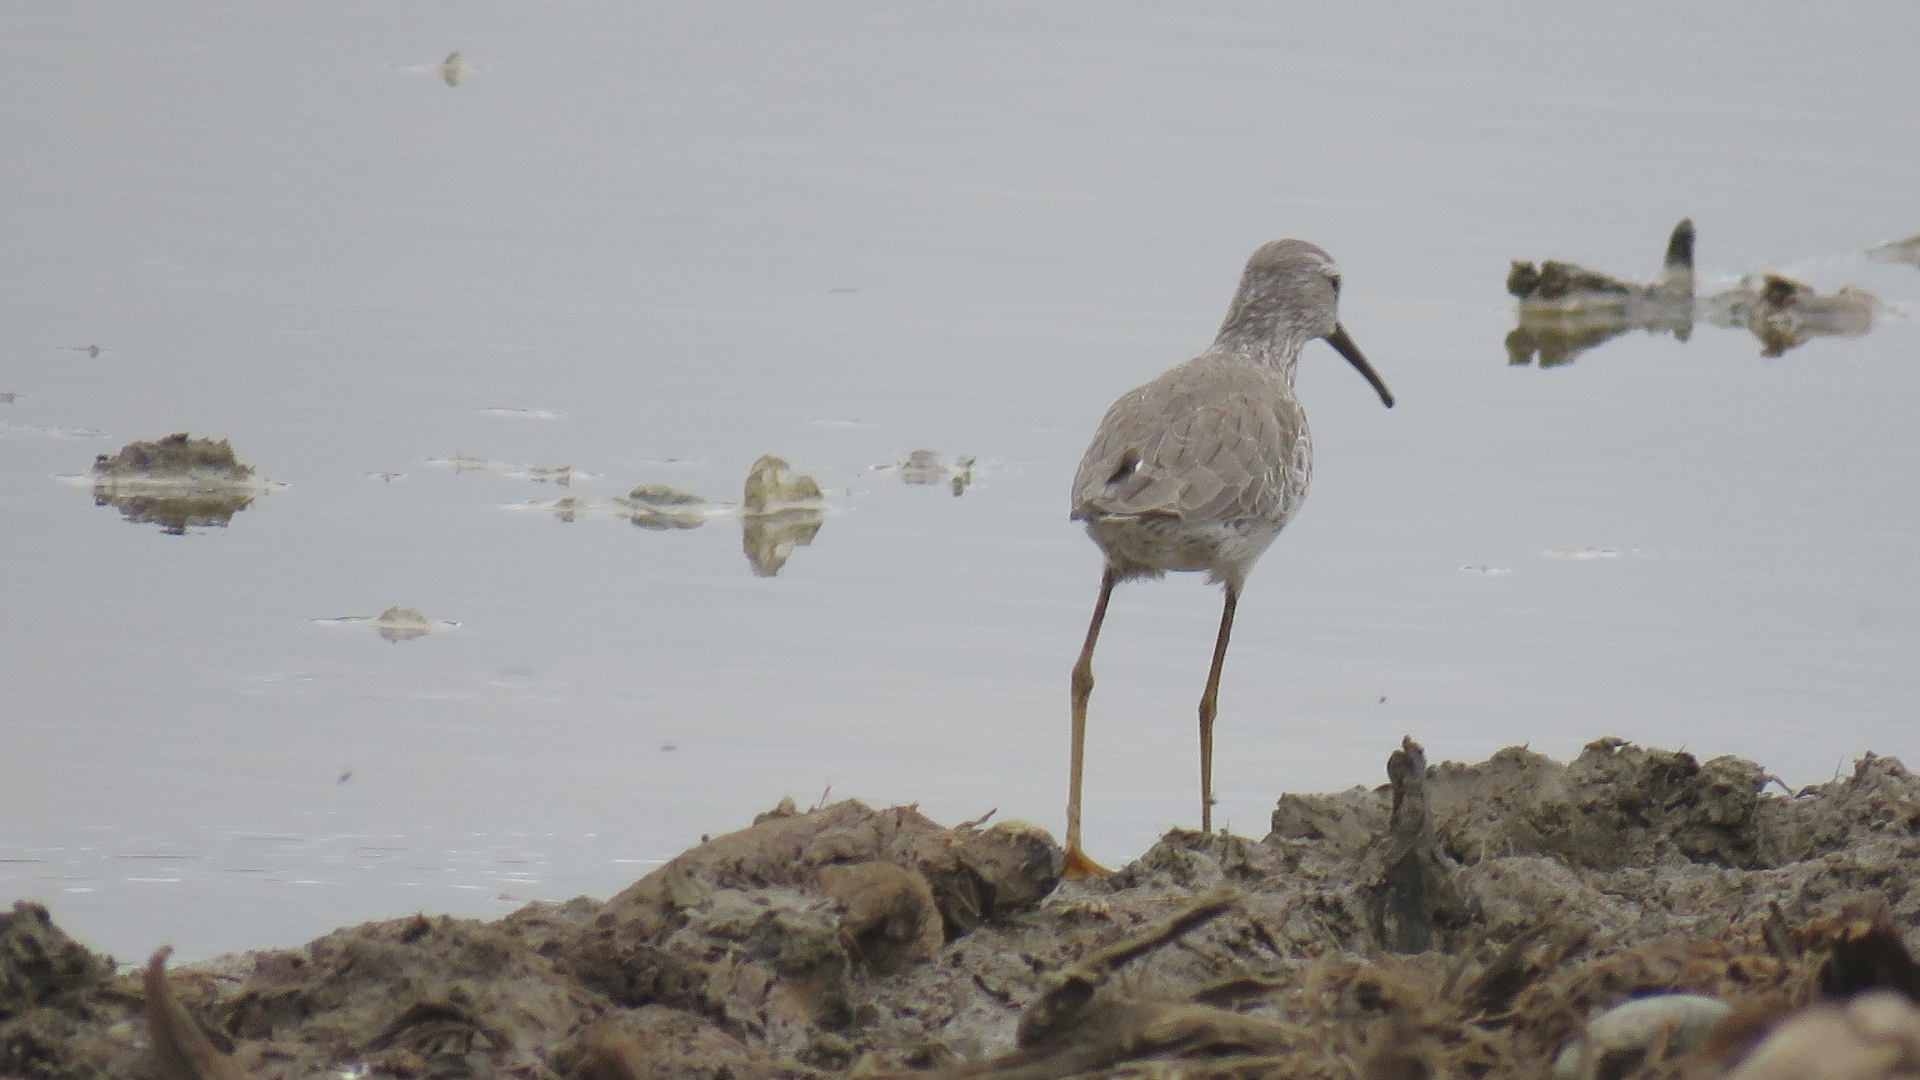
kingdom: Animalia
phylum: Chordata
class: Aves
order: Charadriiformes
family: Scolopacidae
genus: Calidris
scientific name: Calidris himantopus
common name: Stilt sandpiper
